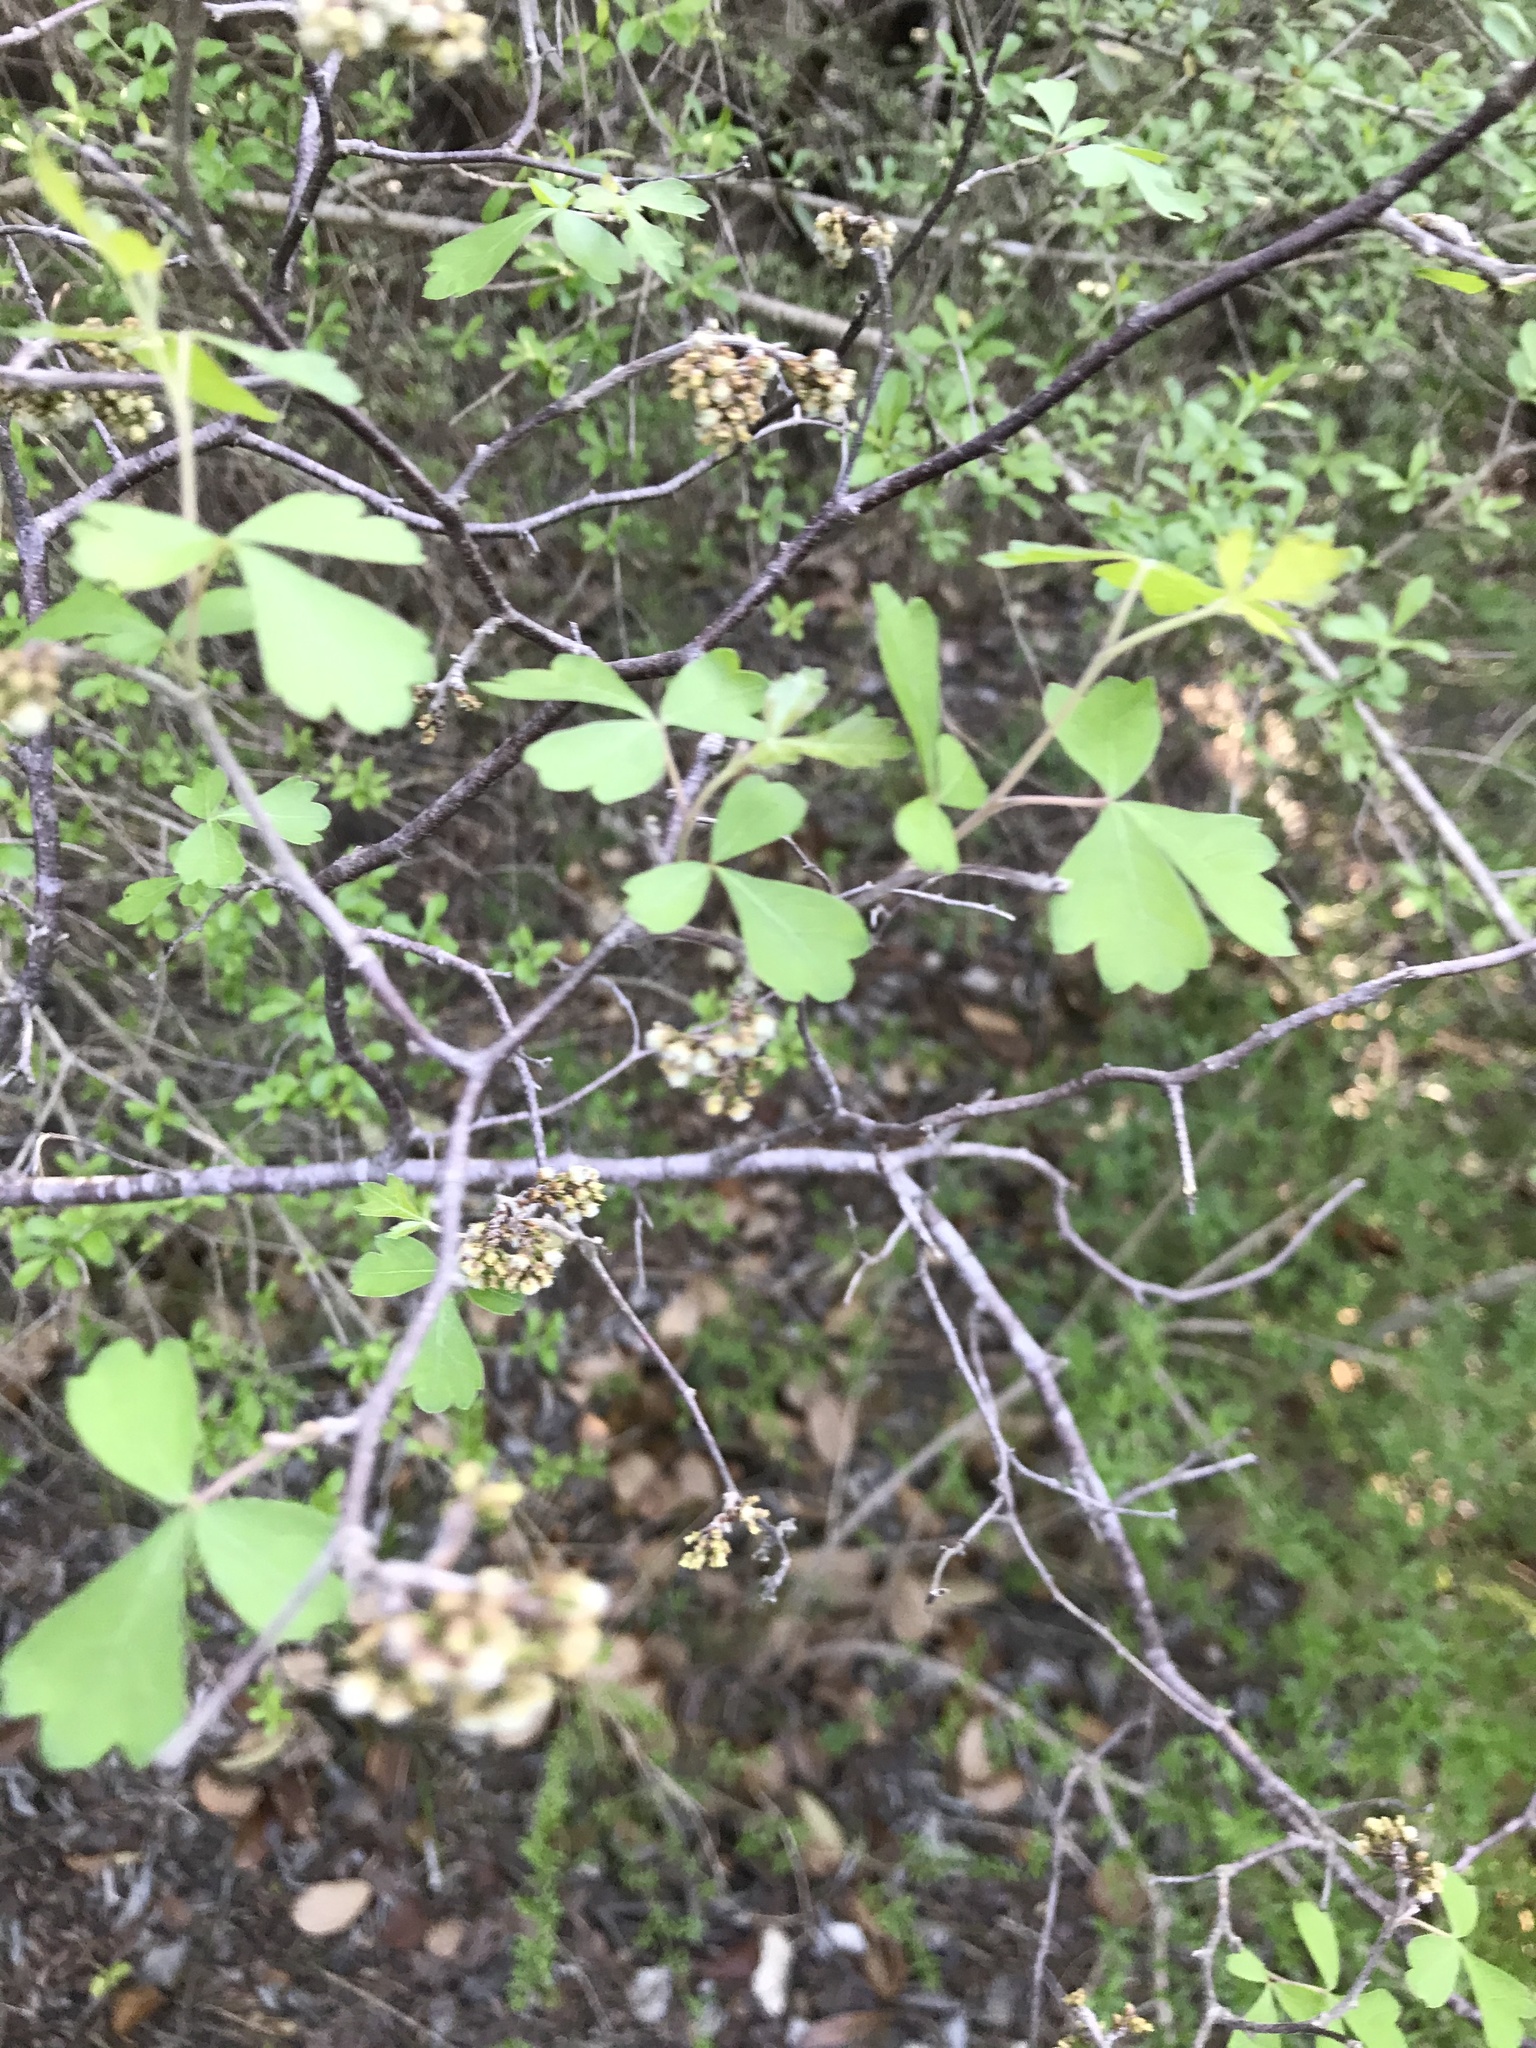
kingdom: Plantae
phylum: Tracheophyta
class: Magnoliopsida
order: Sapindales
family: Anacardiaceae
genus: Rhus
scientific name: Rhus aromatica
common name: Aromatic sumac
